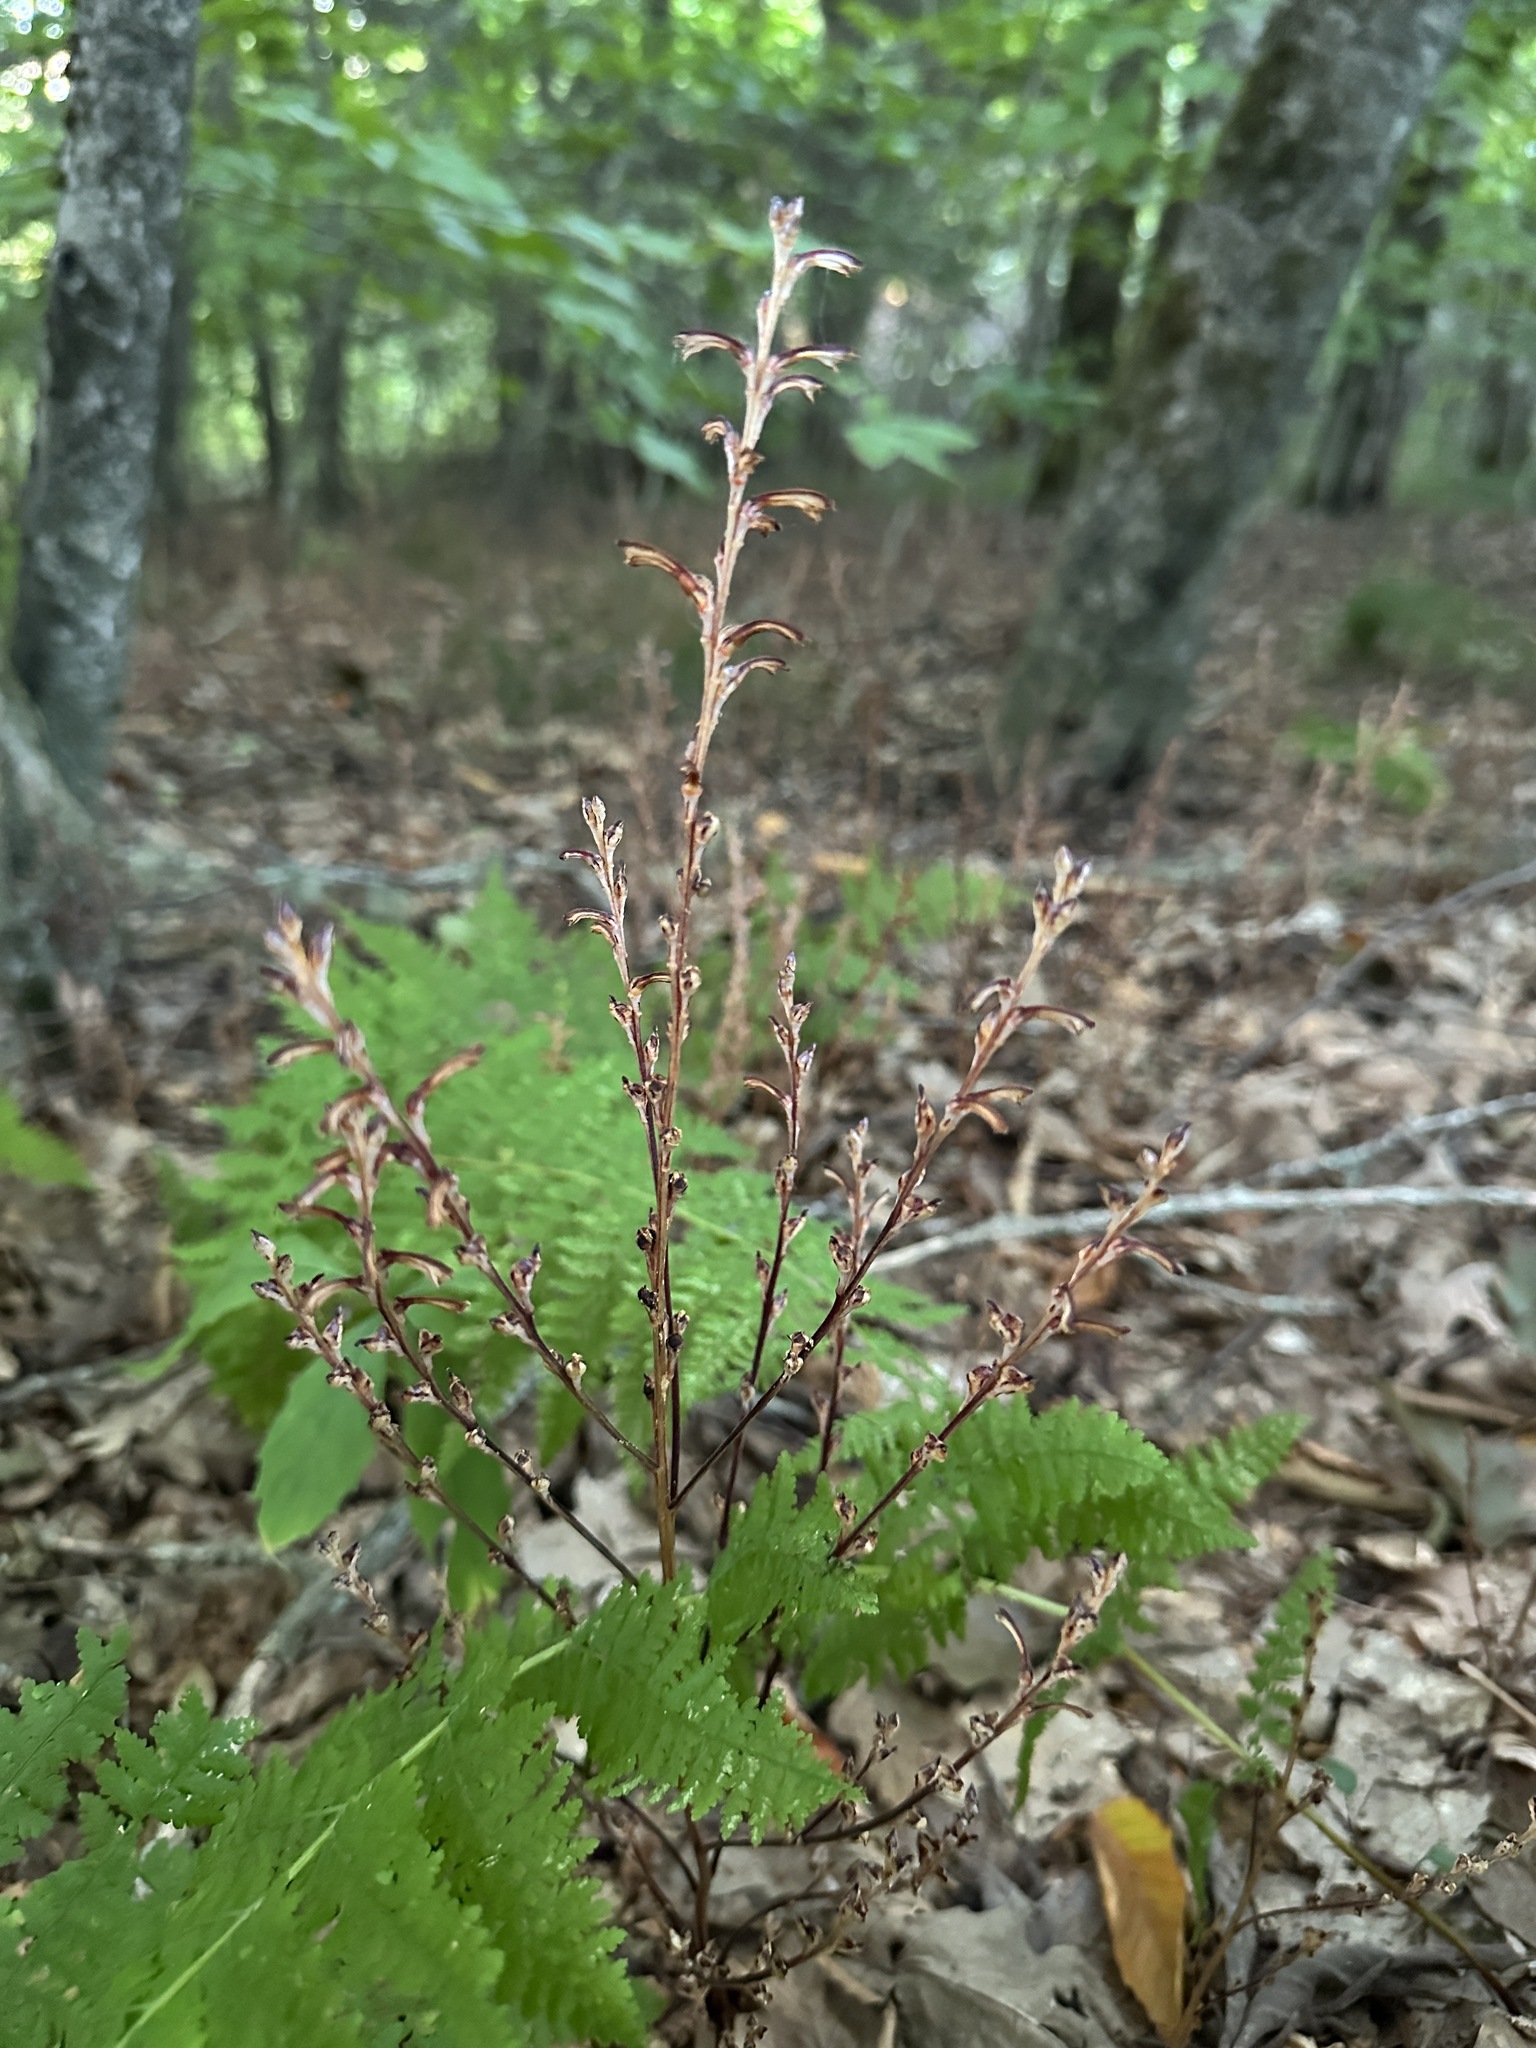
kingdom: Plantae
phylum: Tracheophyta
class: Magnoliopsida
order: Lamiales
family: Orobanchaceae
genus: Epifagus
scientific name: Epifagus virginiana
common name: Beechdrops
